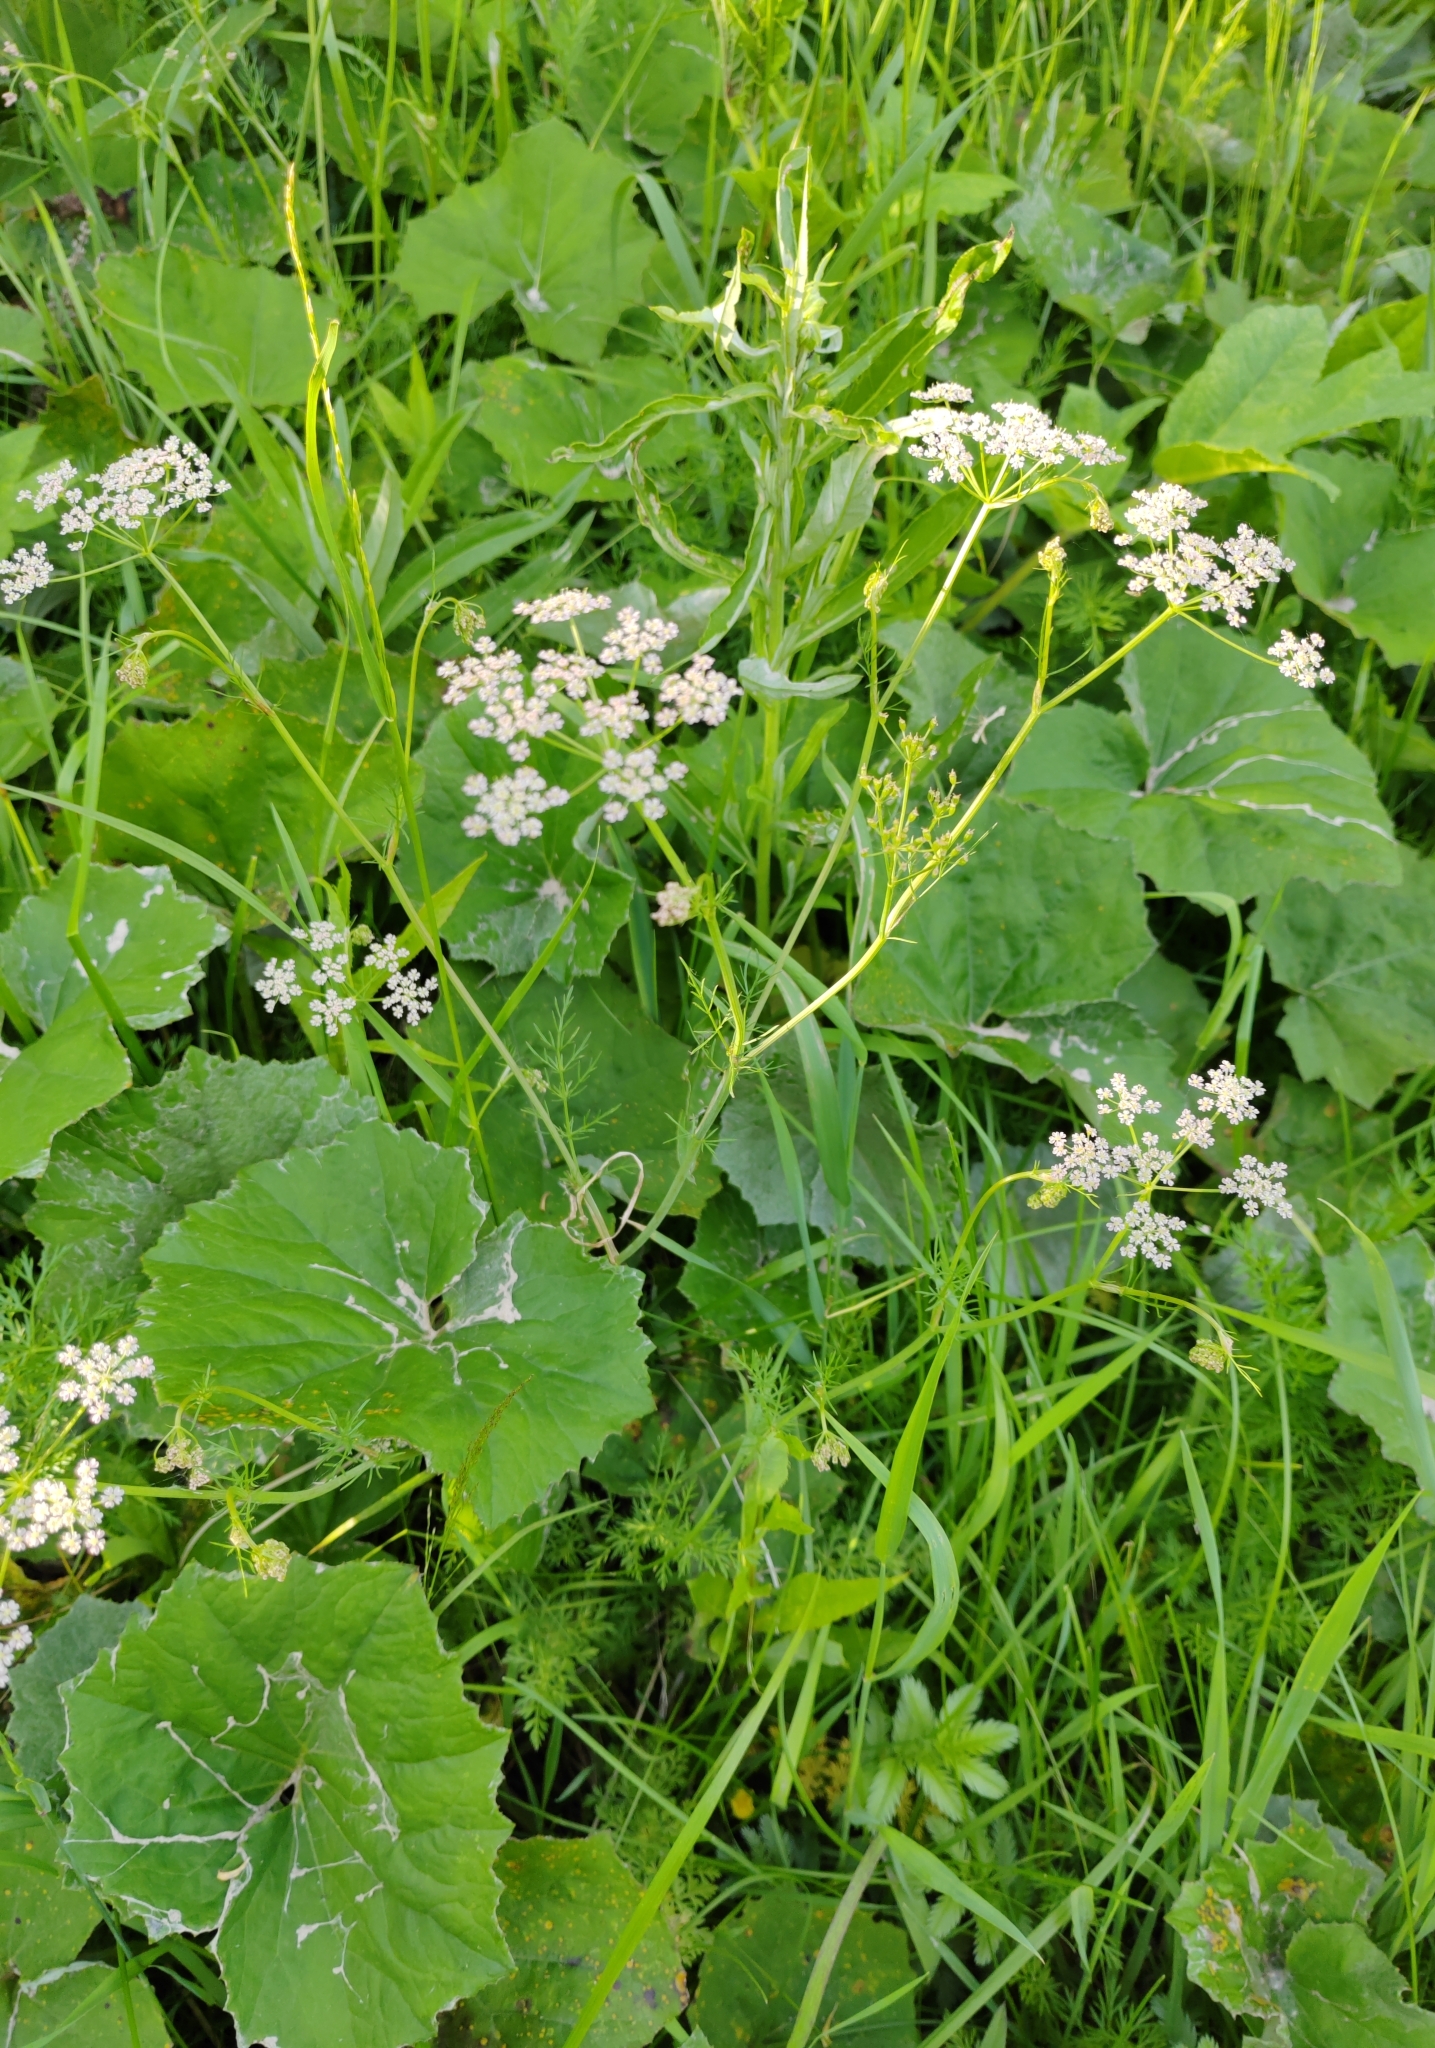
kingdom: Plantae
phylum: Tracheophyta
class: Magnoliopsida
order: Apiales
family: Apiaceae
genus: Carum
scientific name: Carum carvi
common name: Caraway
